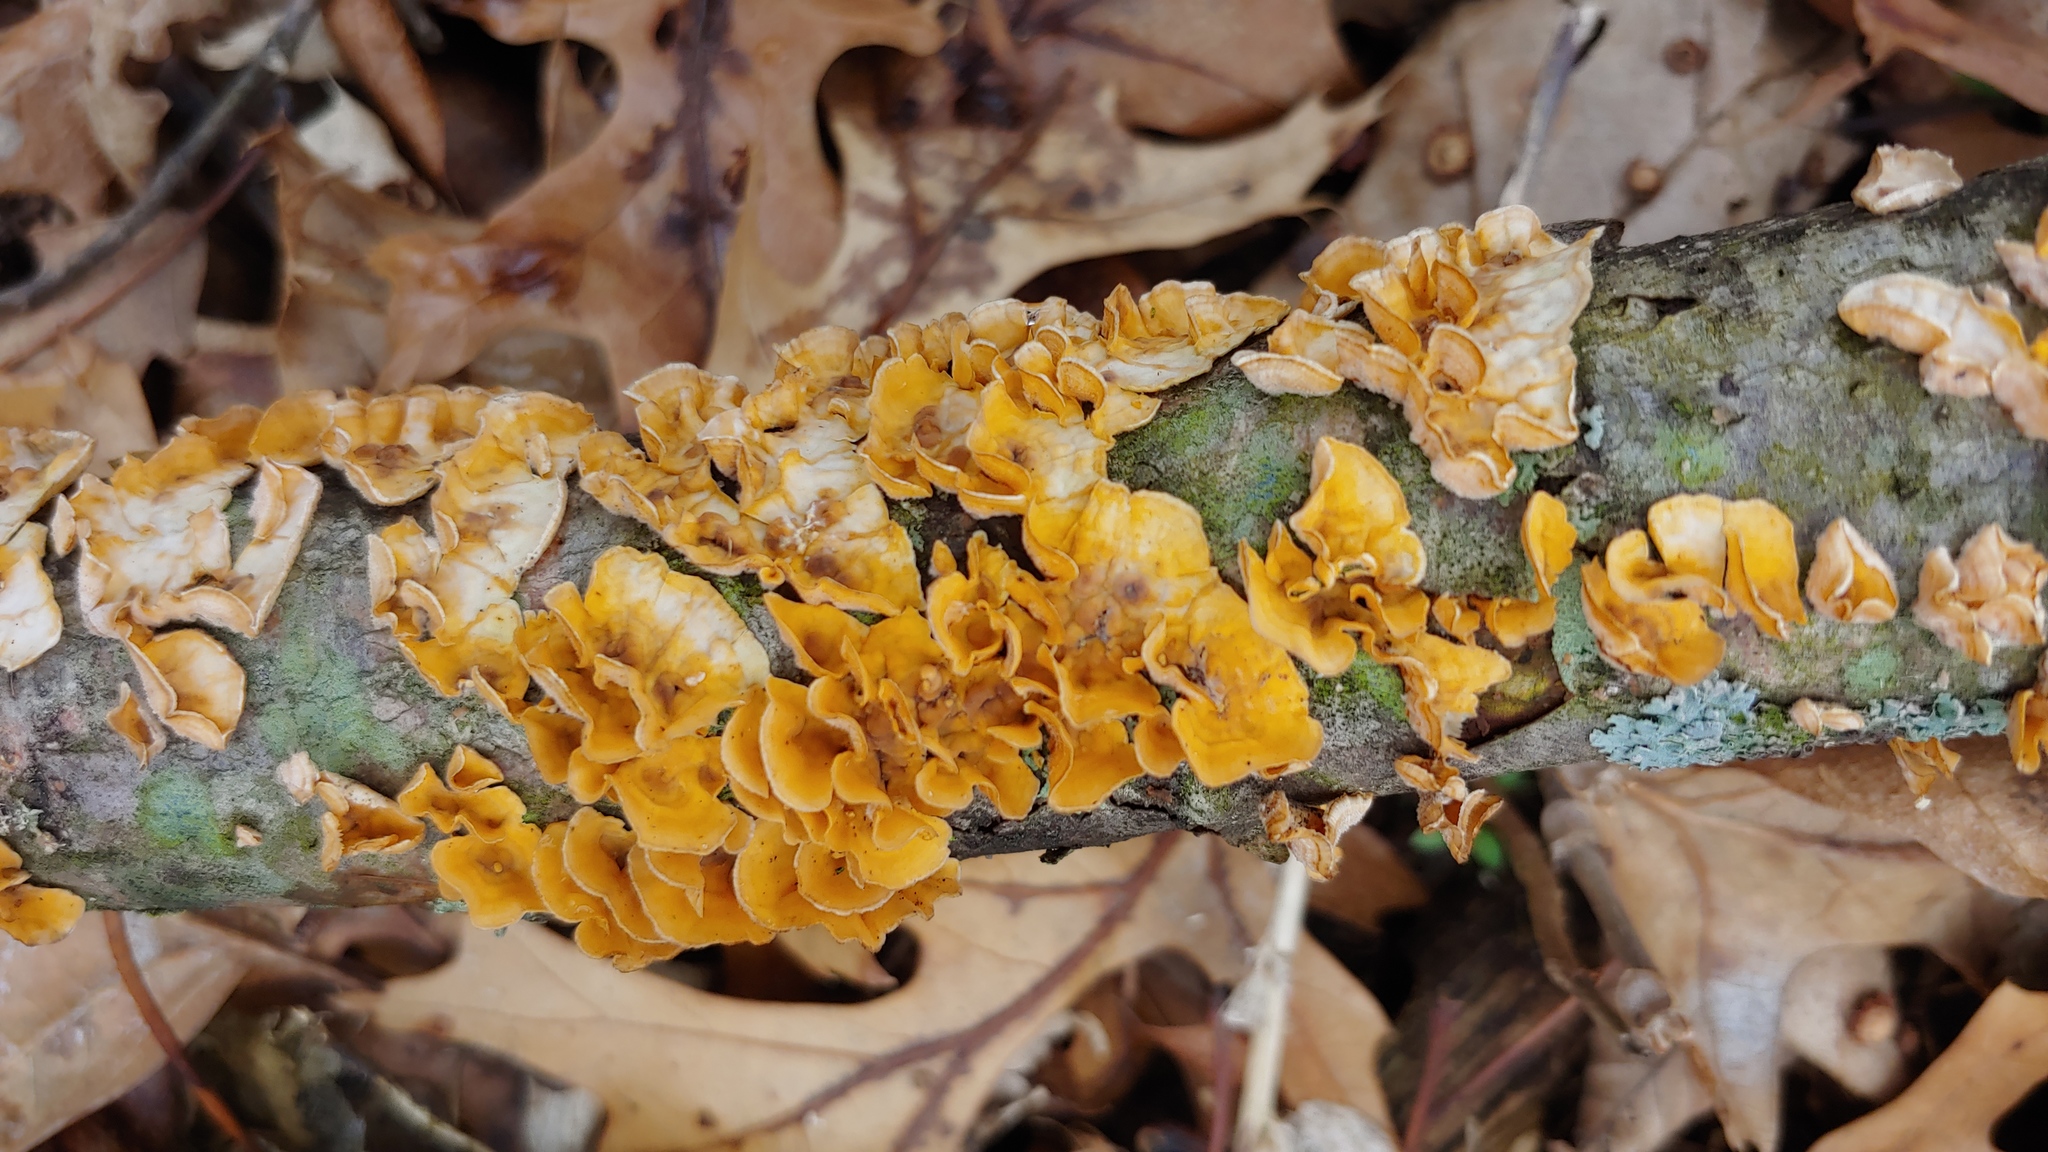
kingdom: Fungi
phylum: Basidiomycota
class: Agaricomycetes
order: Russulales
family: Stereaceae
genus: Stereum
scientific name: Stereum complicatum
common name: Crowded parchment
